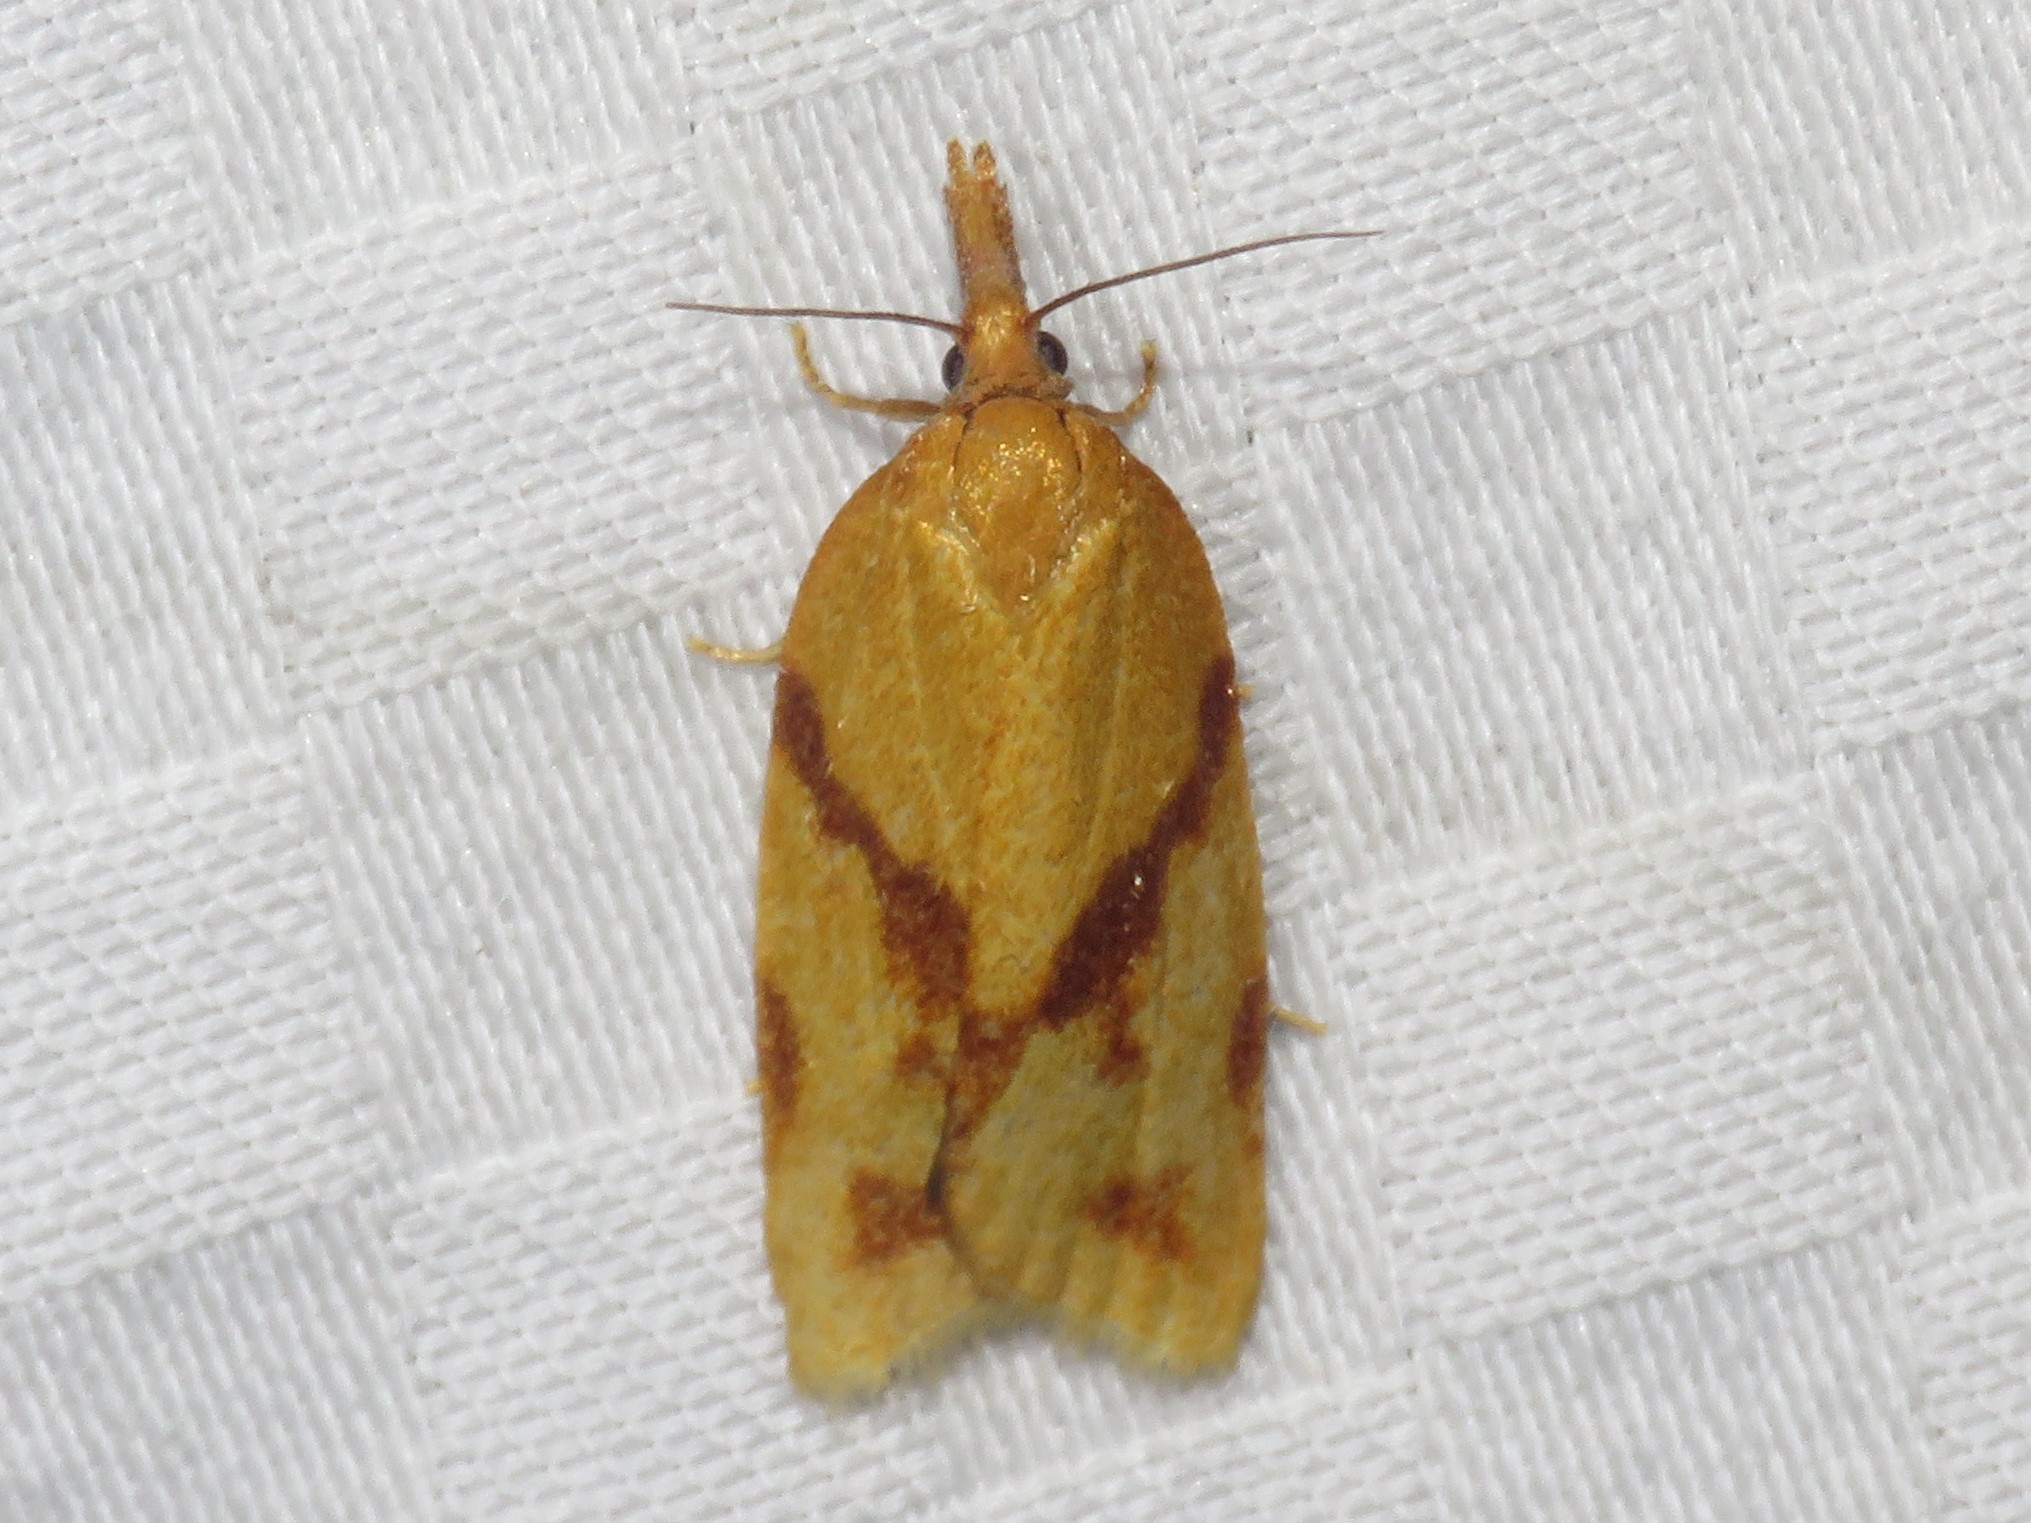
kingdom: Animalia
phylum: Arthropoda
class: Insecta
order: Lepidoptera
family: Tortricidae
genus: Sparganothis
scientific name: Sparganothis unifasciana
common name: One-lined sparganothis moth
